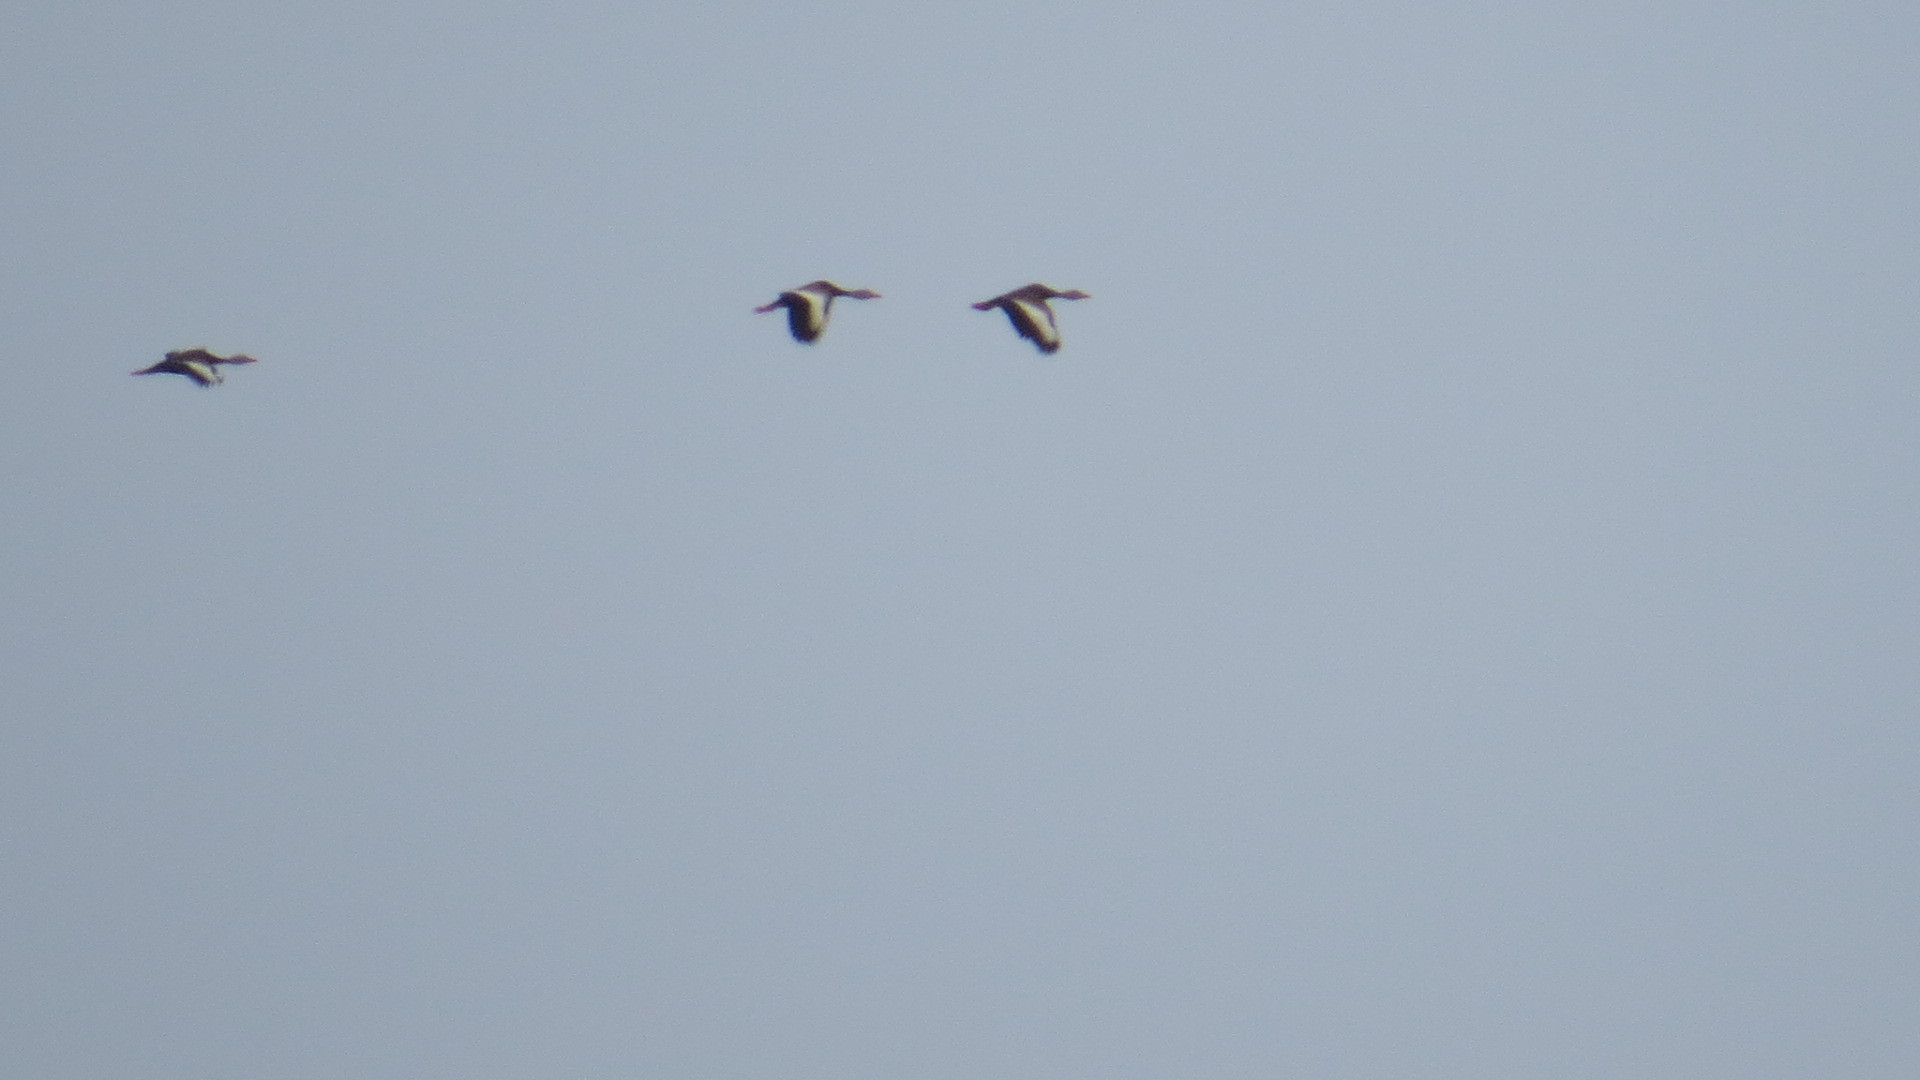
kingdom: Animalia
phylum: Chordata
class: Aves
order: Anseriformes
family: Anatidae
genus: Dendrocygna
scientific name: Dendrocygna autumnalis
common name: Black-bellied whistling duck
